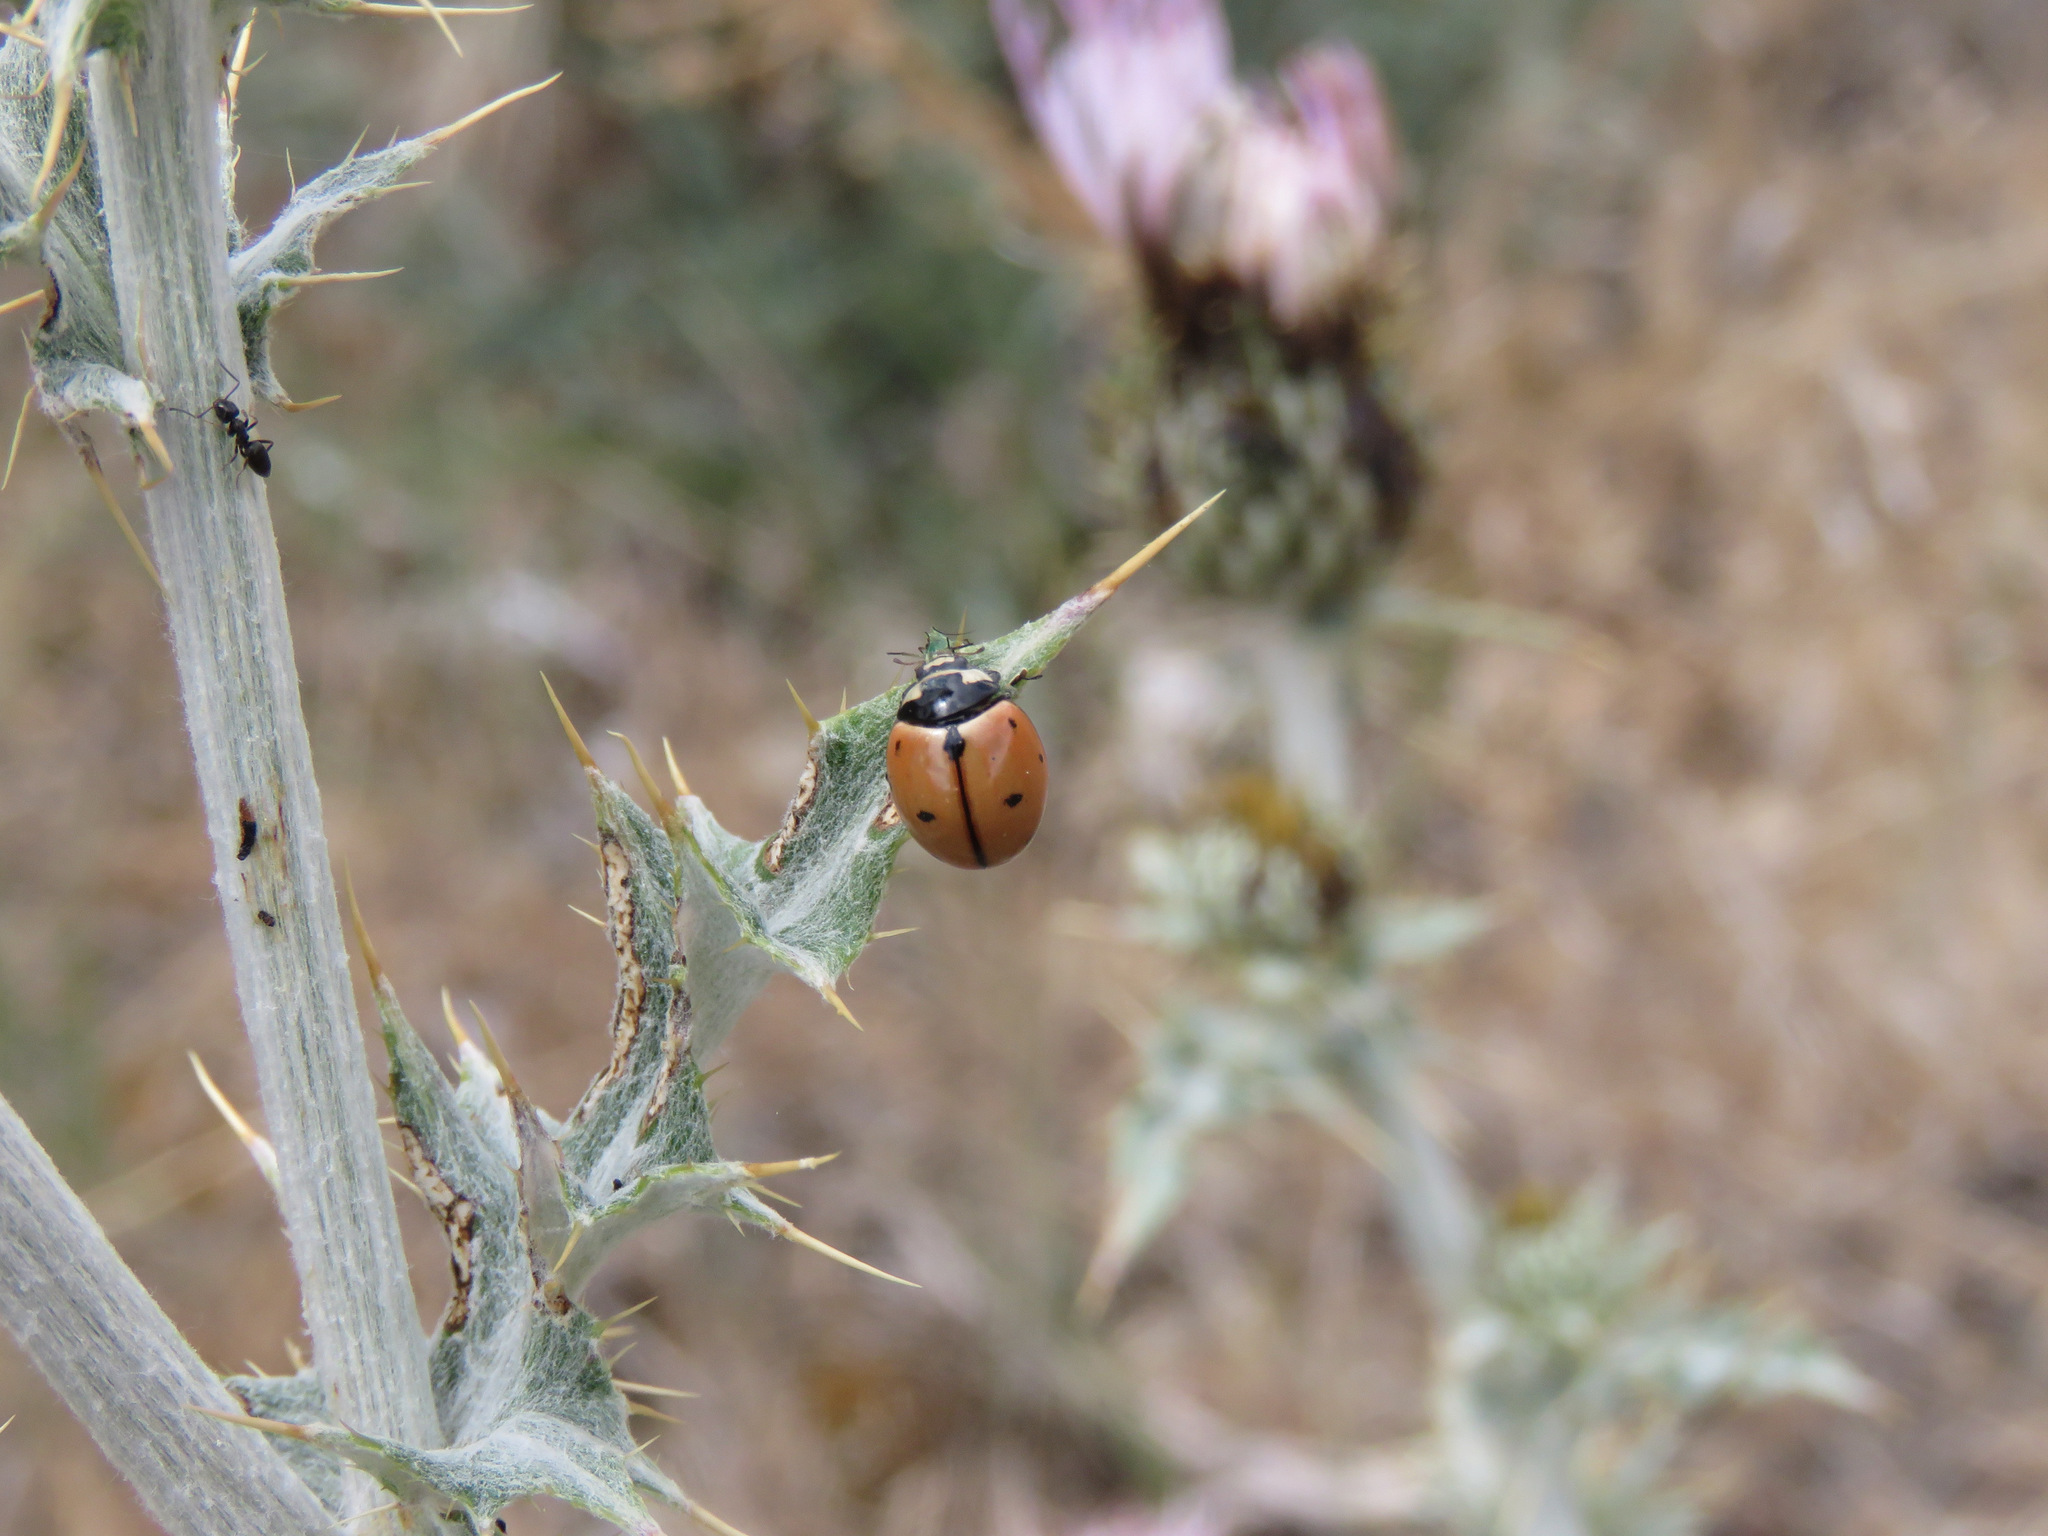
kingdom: Animalia
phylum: Arthropoda
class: Insecta
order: Coleoptera
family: Coccinellidae
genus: Coccinella
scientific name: Coccinella novemnotata
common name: Nine-spotted lady beetle
